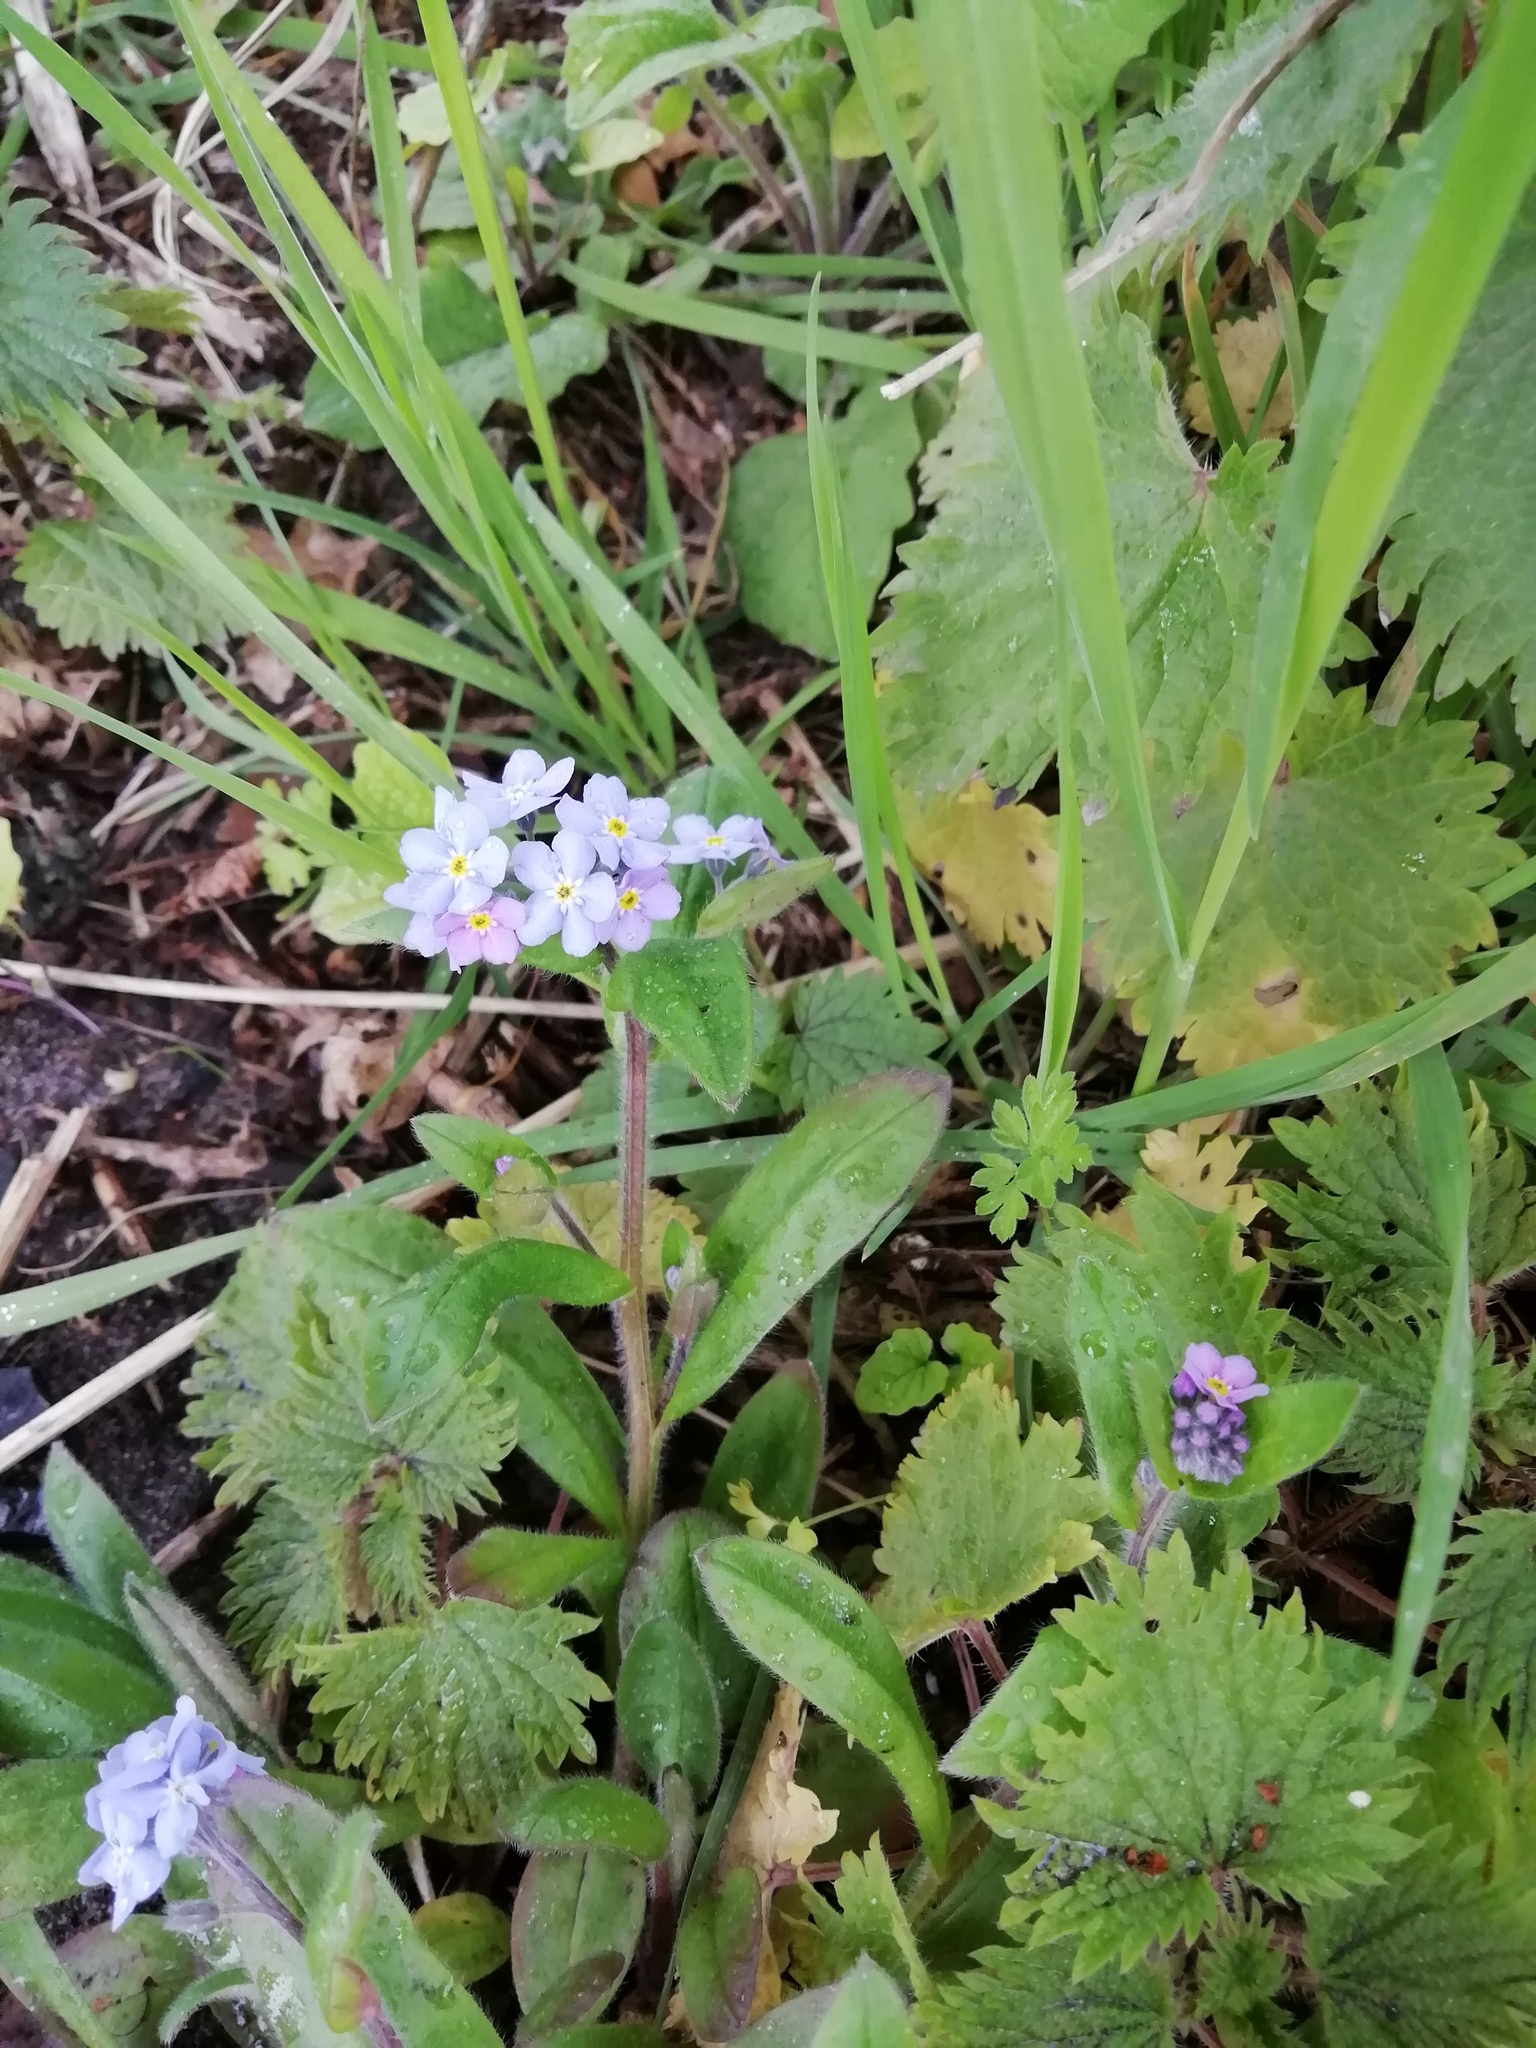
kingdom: Plantae
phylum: Tracheophyta
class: Magnoliopsida
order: Boraginales
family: Boraginaceae
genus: Myosotis
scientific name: Myosotis sylvatica
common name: Wood forget-me-not
